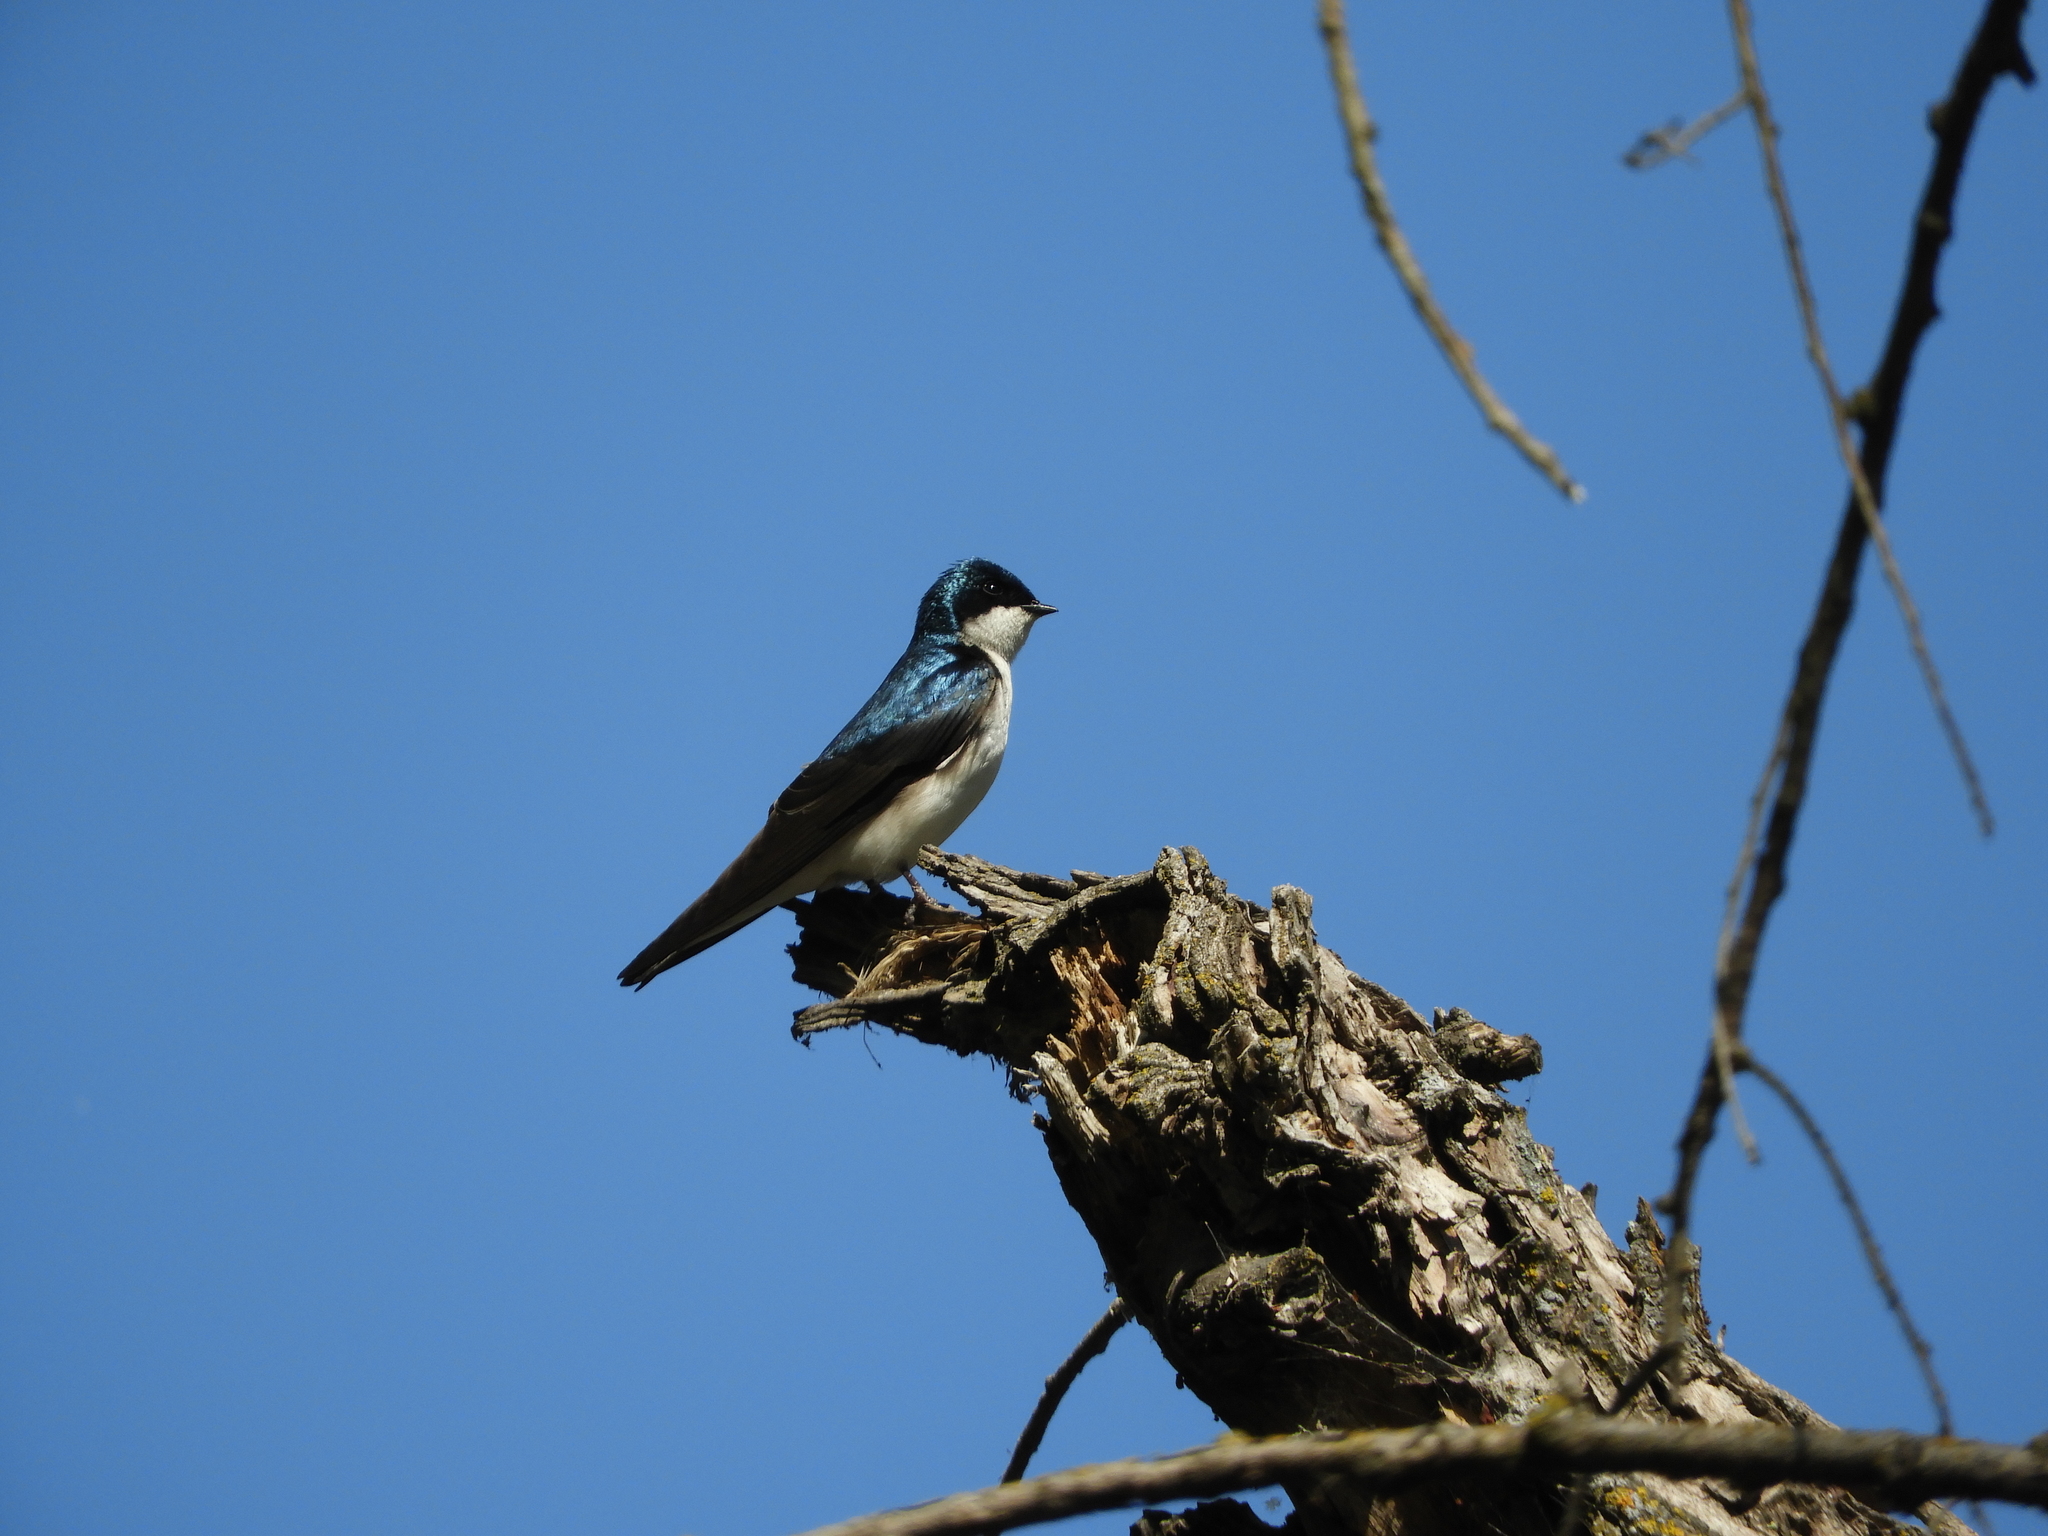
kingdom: Animalia
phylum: Chordata
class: Aves
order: Passeriformes
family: Hirundinidae
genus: Tachycineta
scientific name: Tachycineta bicolor
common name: Tree swallow
